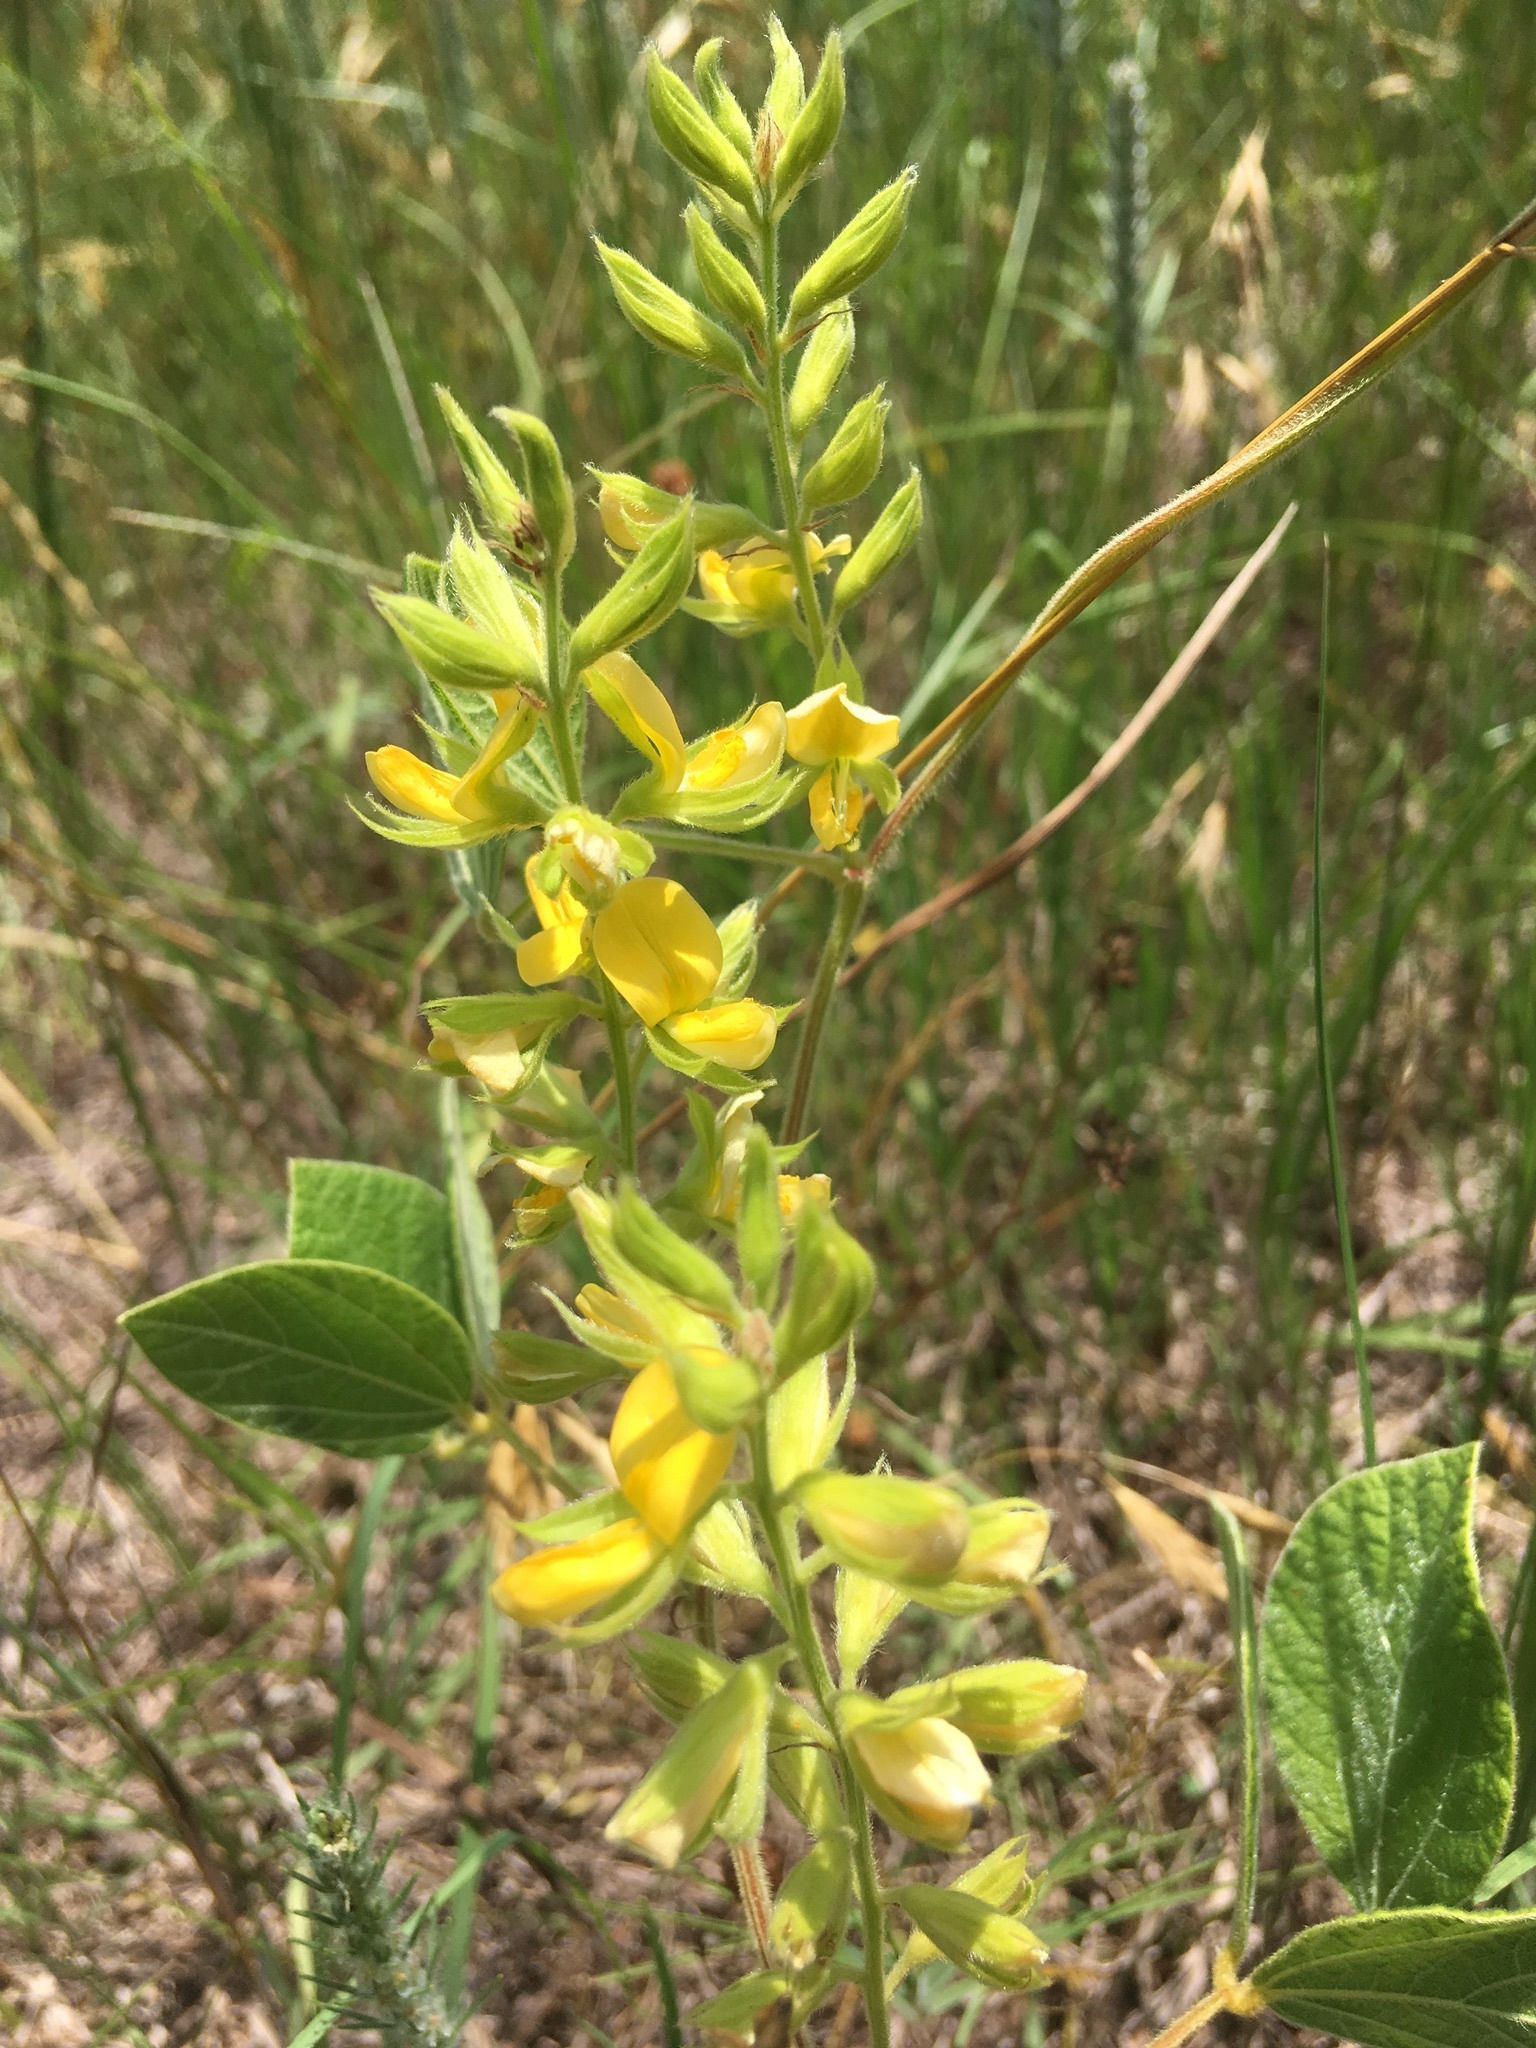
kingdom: Plantae
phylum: Tracheophyta
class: Magnoliopsida
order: Fabales
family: Fabaceae
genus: Rhynchosia
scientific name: Rhynchosia latifolia
